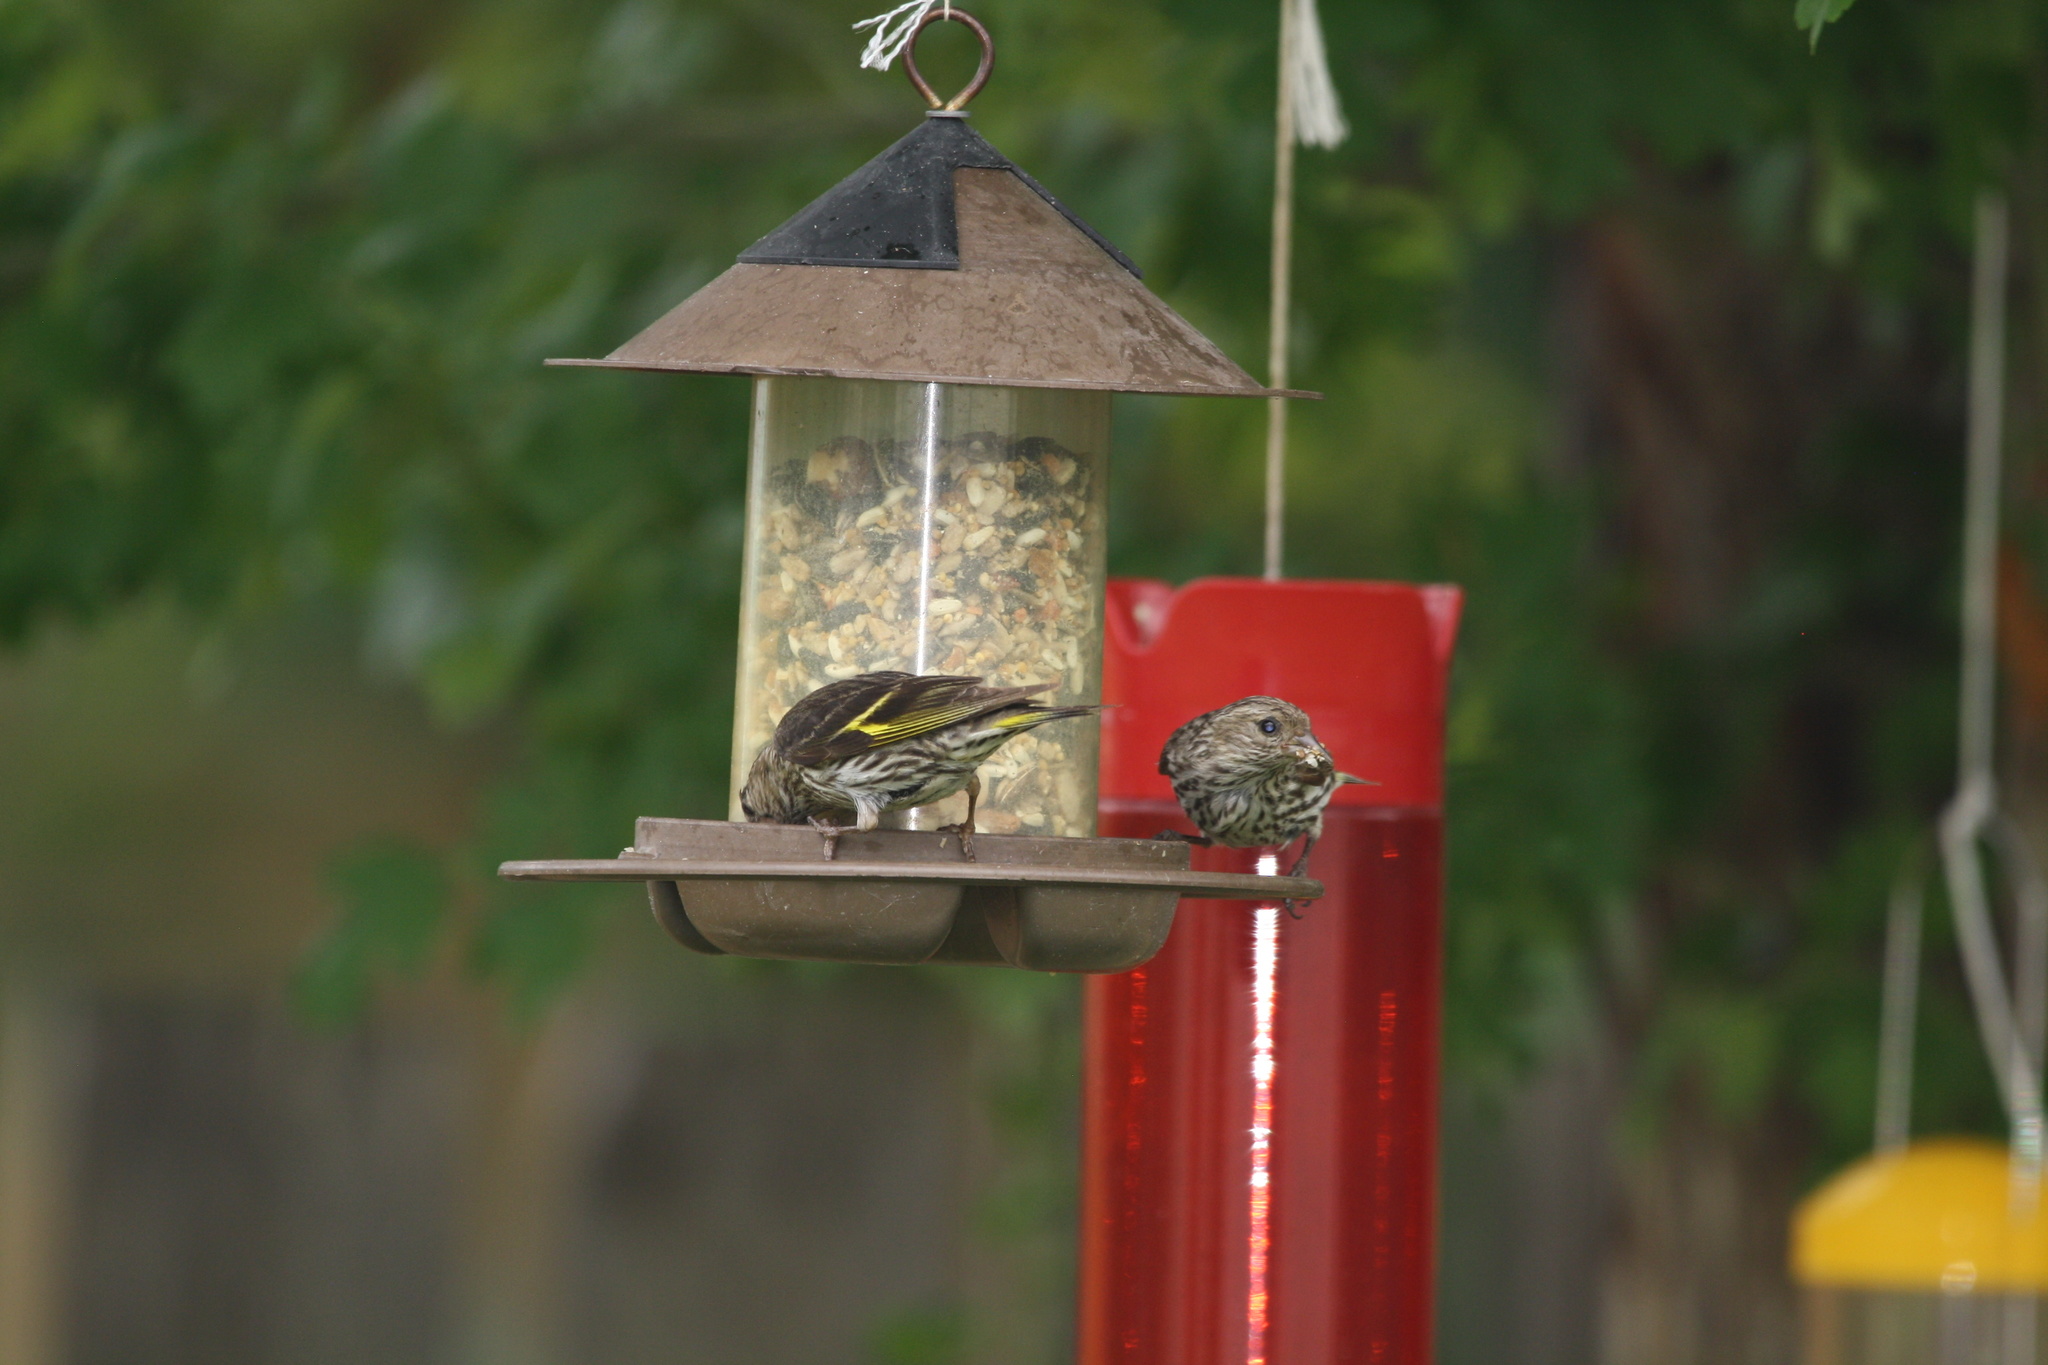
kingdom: Animalia
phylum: Chordata
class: Aves
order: Passeriformes
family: Fringillidae
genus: Spinus
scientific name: Spinus pinus
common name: Pine siskin
